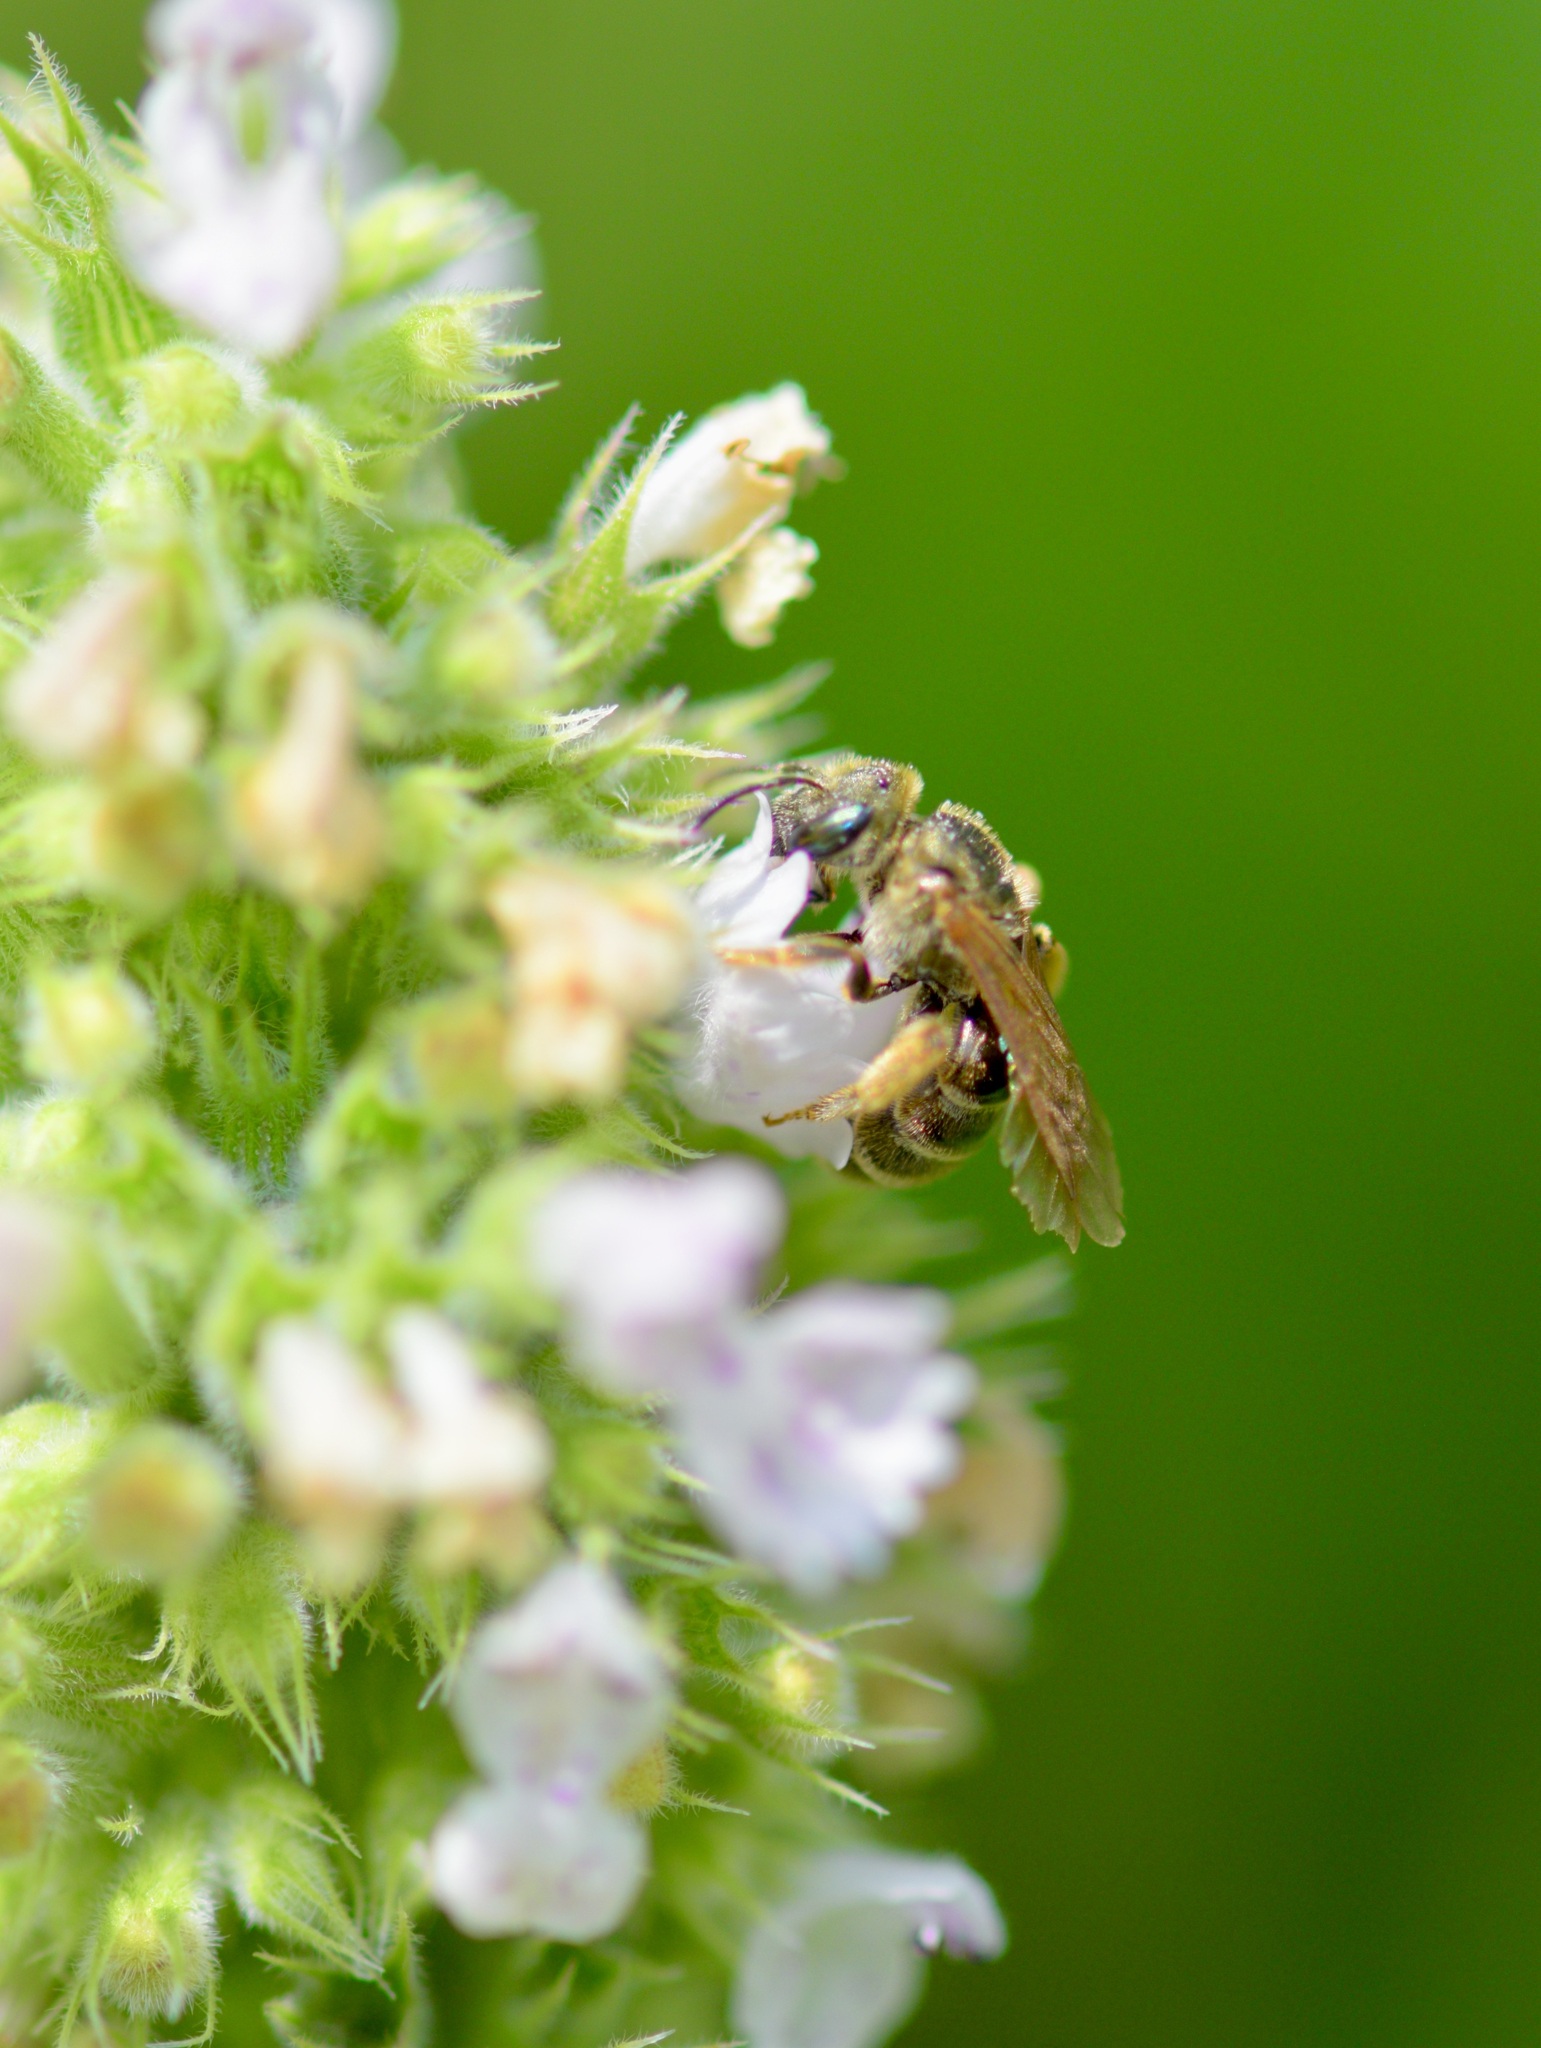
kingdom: Animalia
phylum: Arthropoda
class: Insecta
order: Hymenoptera
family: Halictidae
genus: Halictus
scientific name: Halictus confusus
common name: Southern bronze furrow bee
